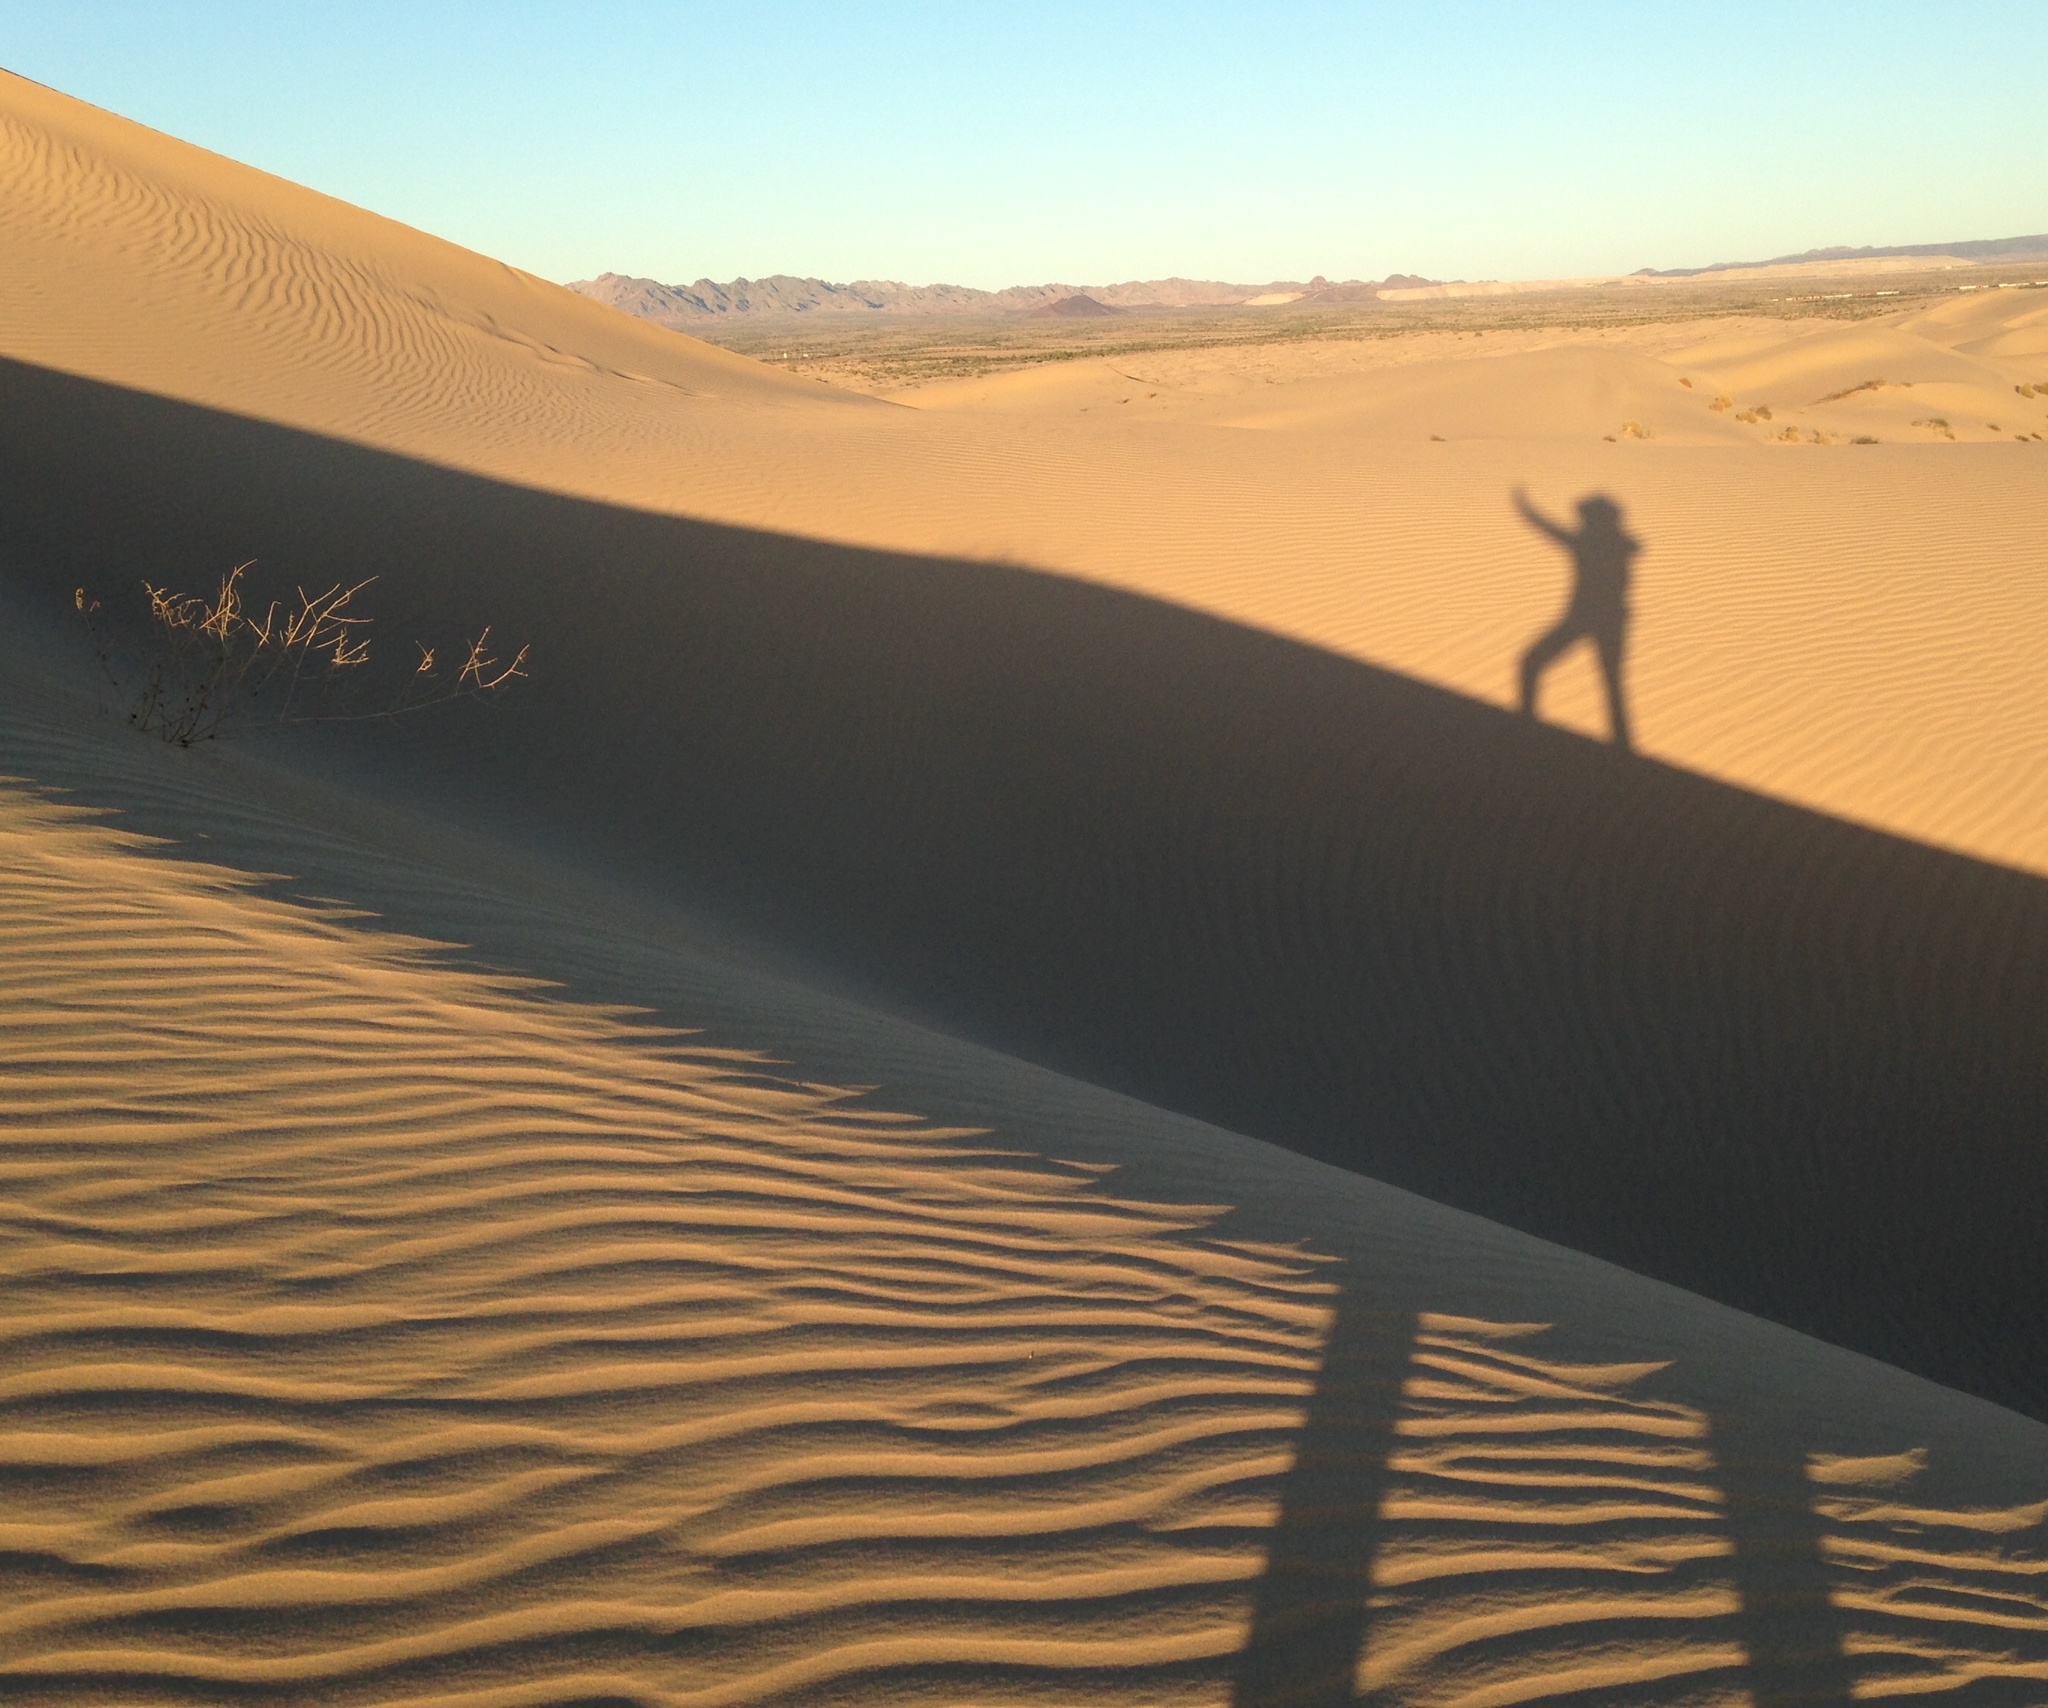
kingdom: Plantae
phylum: Tracheophyta
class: Magnoliopsida
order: Fabales
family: Fabaceae
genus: Astragalus
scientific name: Astragalus magdalenae
